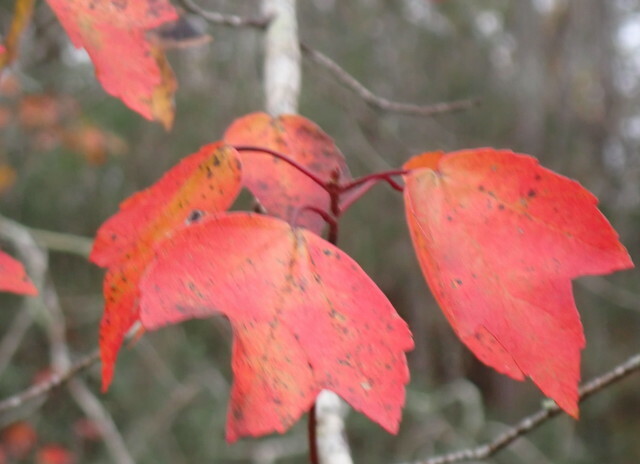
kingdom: Plantae
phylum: Tracheophyta
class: Magnoliopsida
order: Sapindales
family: Sapindaceae
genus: Acer
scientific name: Acer rubrum
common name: Red maple
